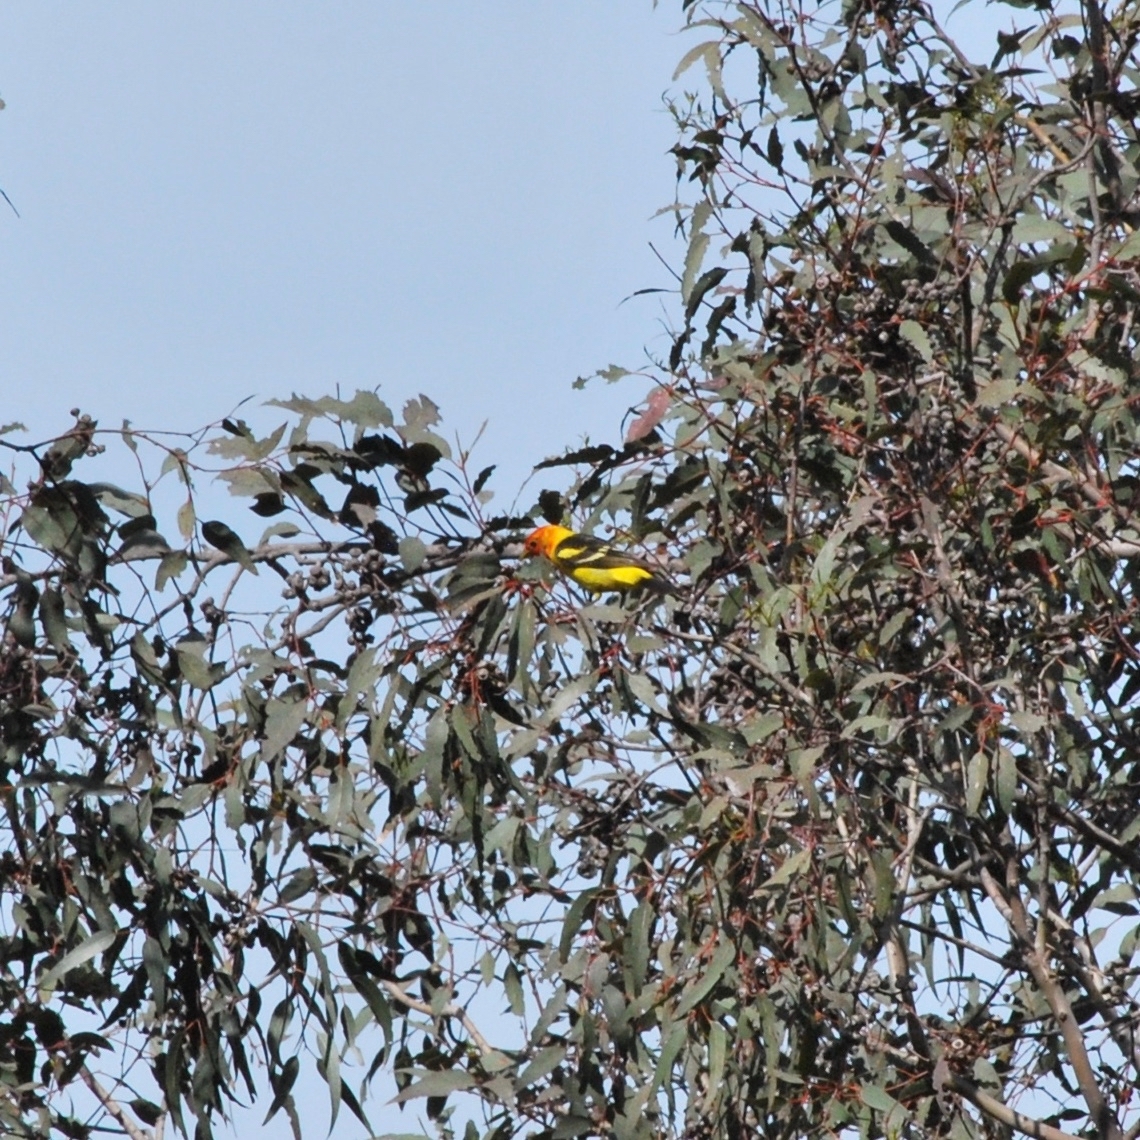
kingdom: Animalia
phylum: Chordata
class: Aves
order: Passeriformes
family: Cardinalidae
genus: Piranga
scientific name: Piranga ludoviciana
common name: Western tanager
